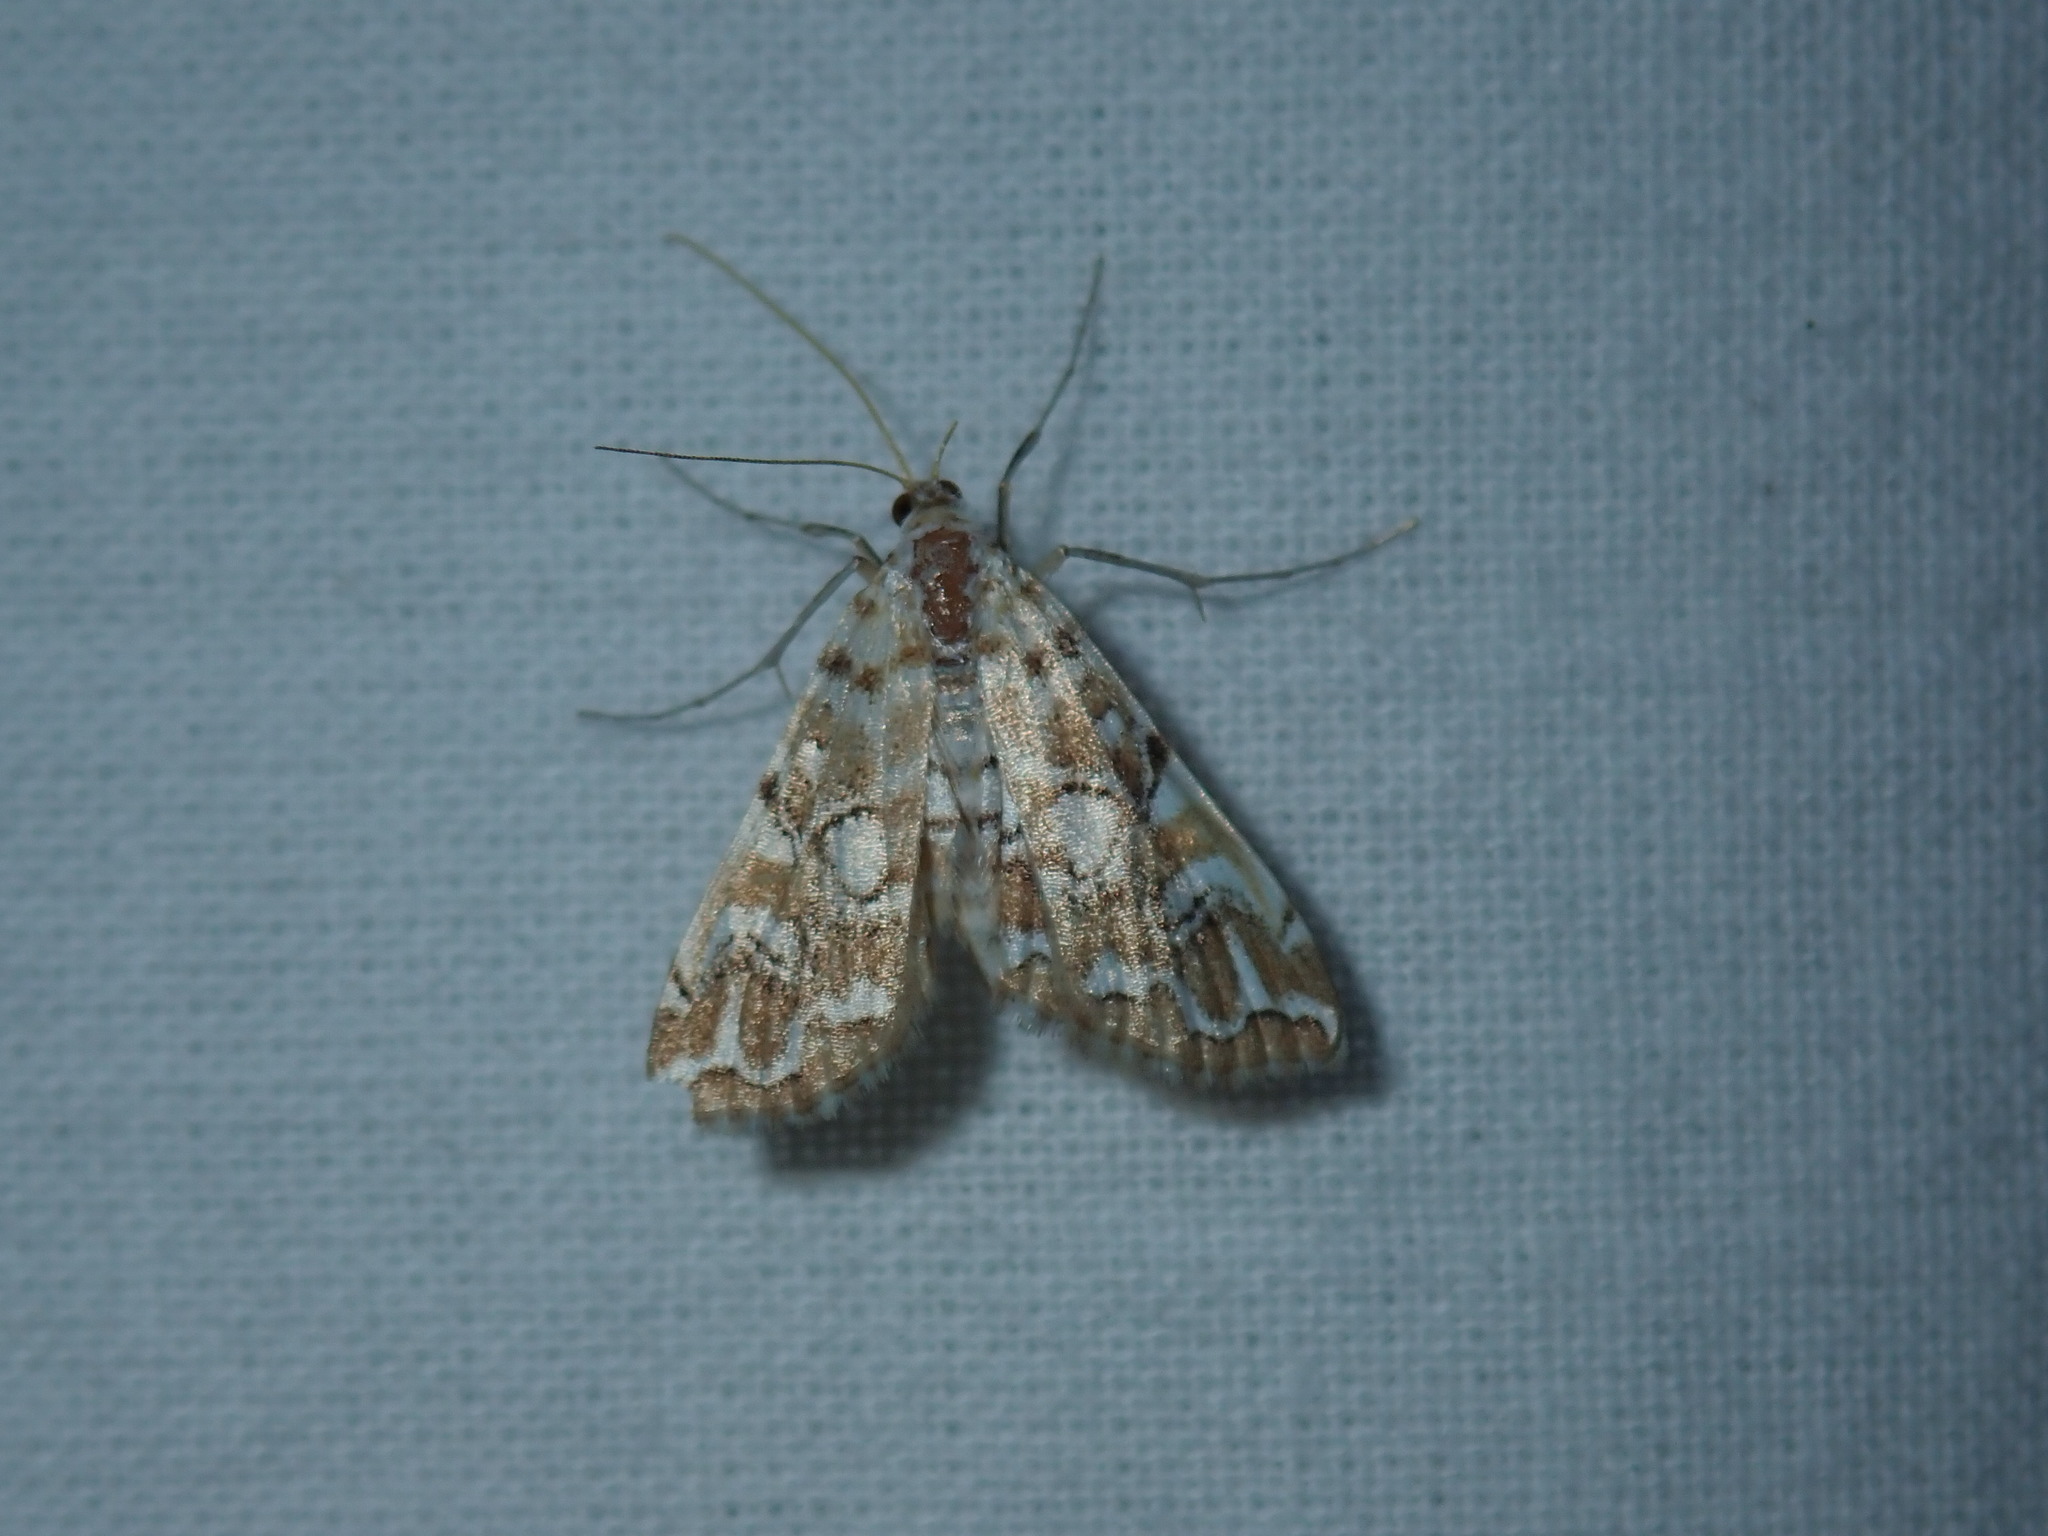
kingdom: Animalia
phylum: Arthropoda
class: Insecta
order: Lepidoptera
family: Crambidae
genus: Elophila
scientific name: Elophila icciusalis
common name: Pondside pyralid moth
